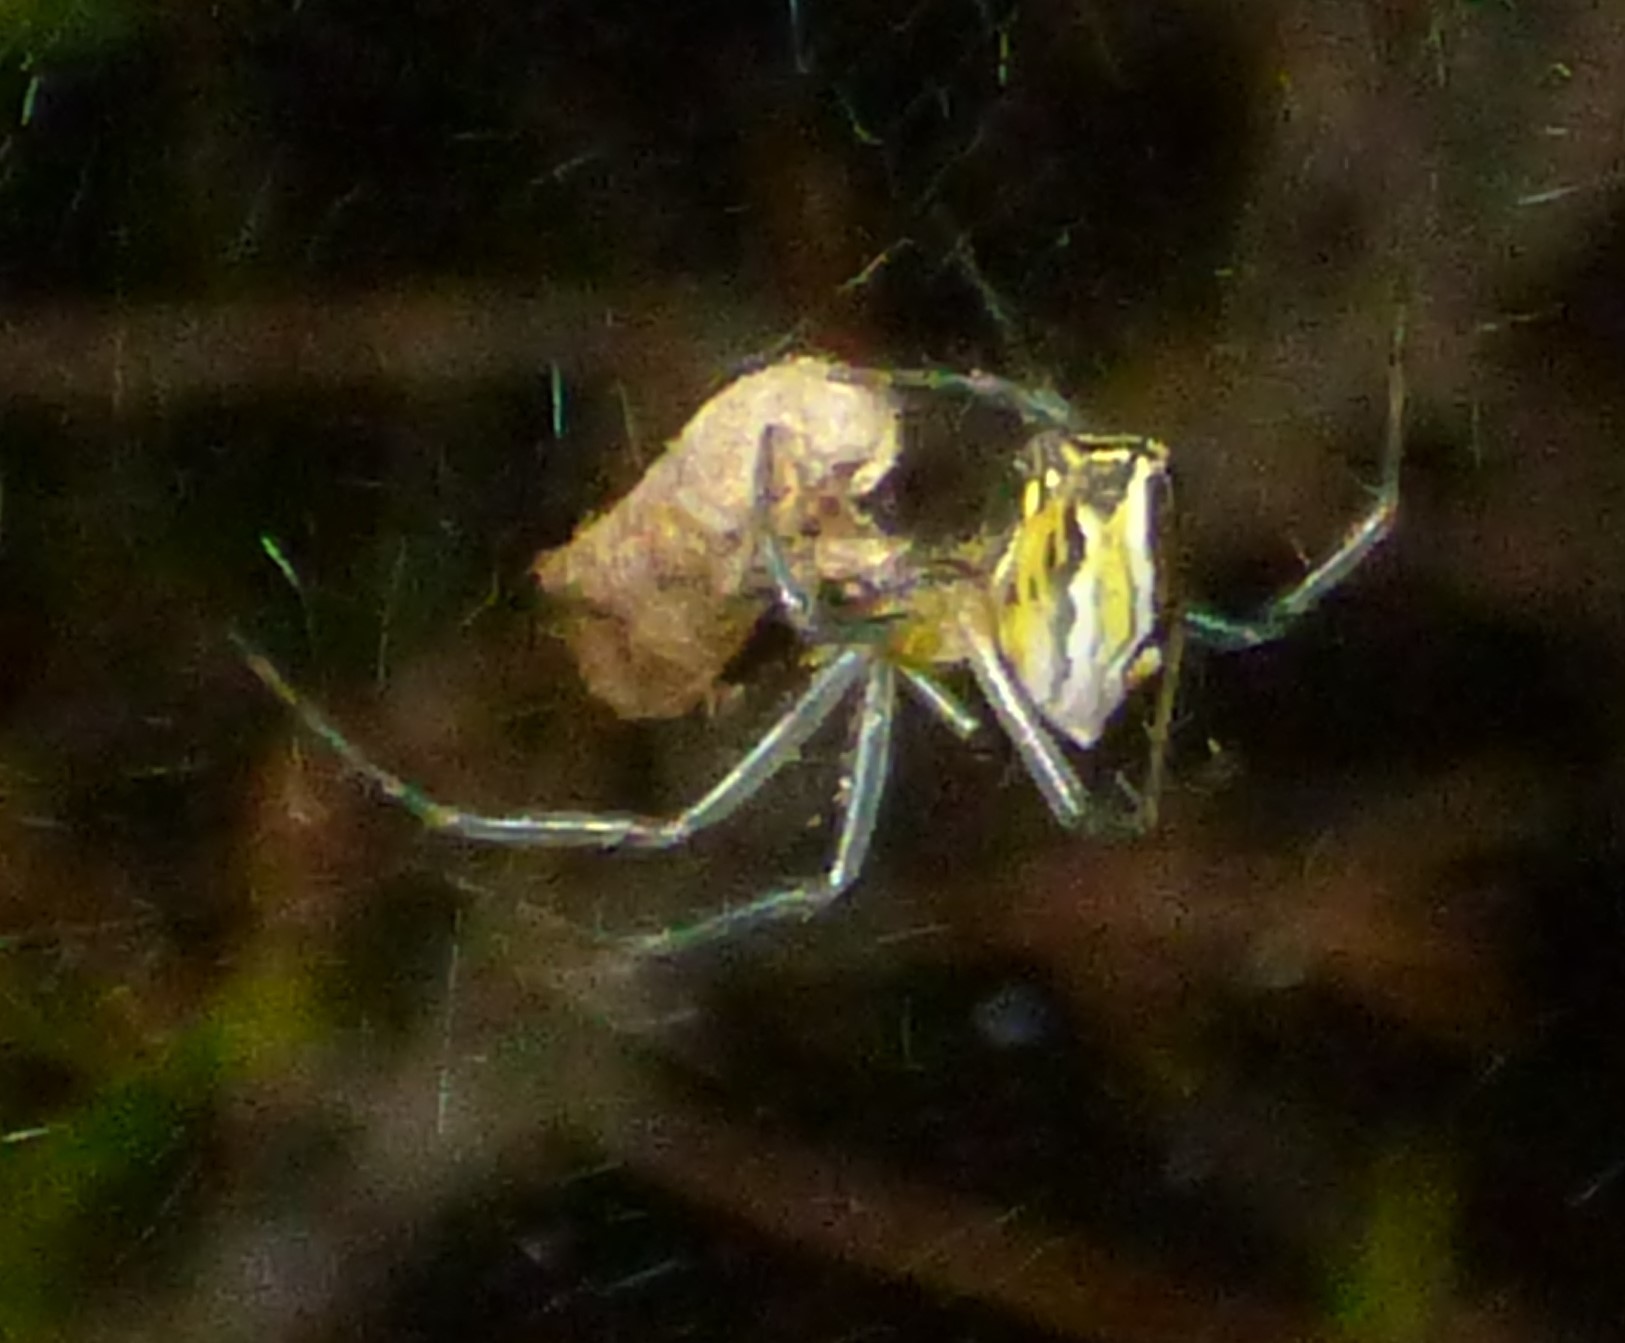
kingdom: Animalia
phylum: Arthropoda
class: Arachnida
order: Araneae
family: Araneidae
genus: Mecynogea
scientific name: Mecynogea lemniscata
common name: Orb weavers
